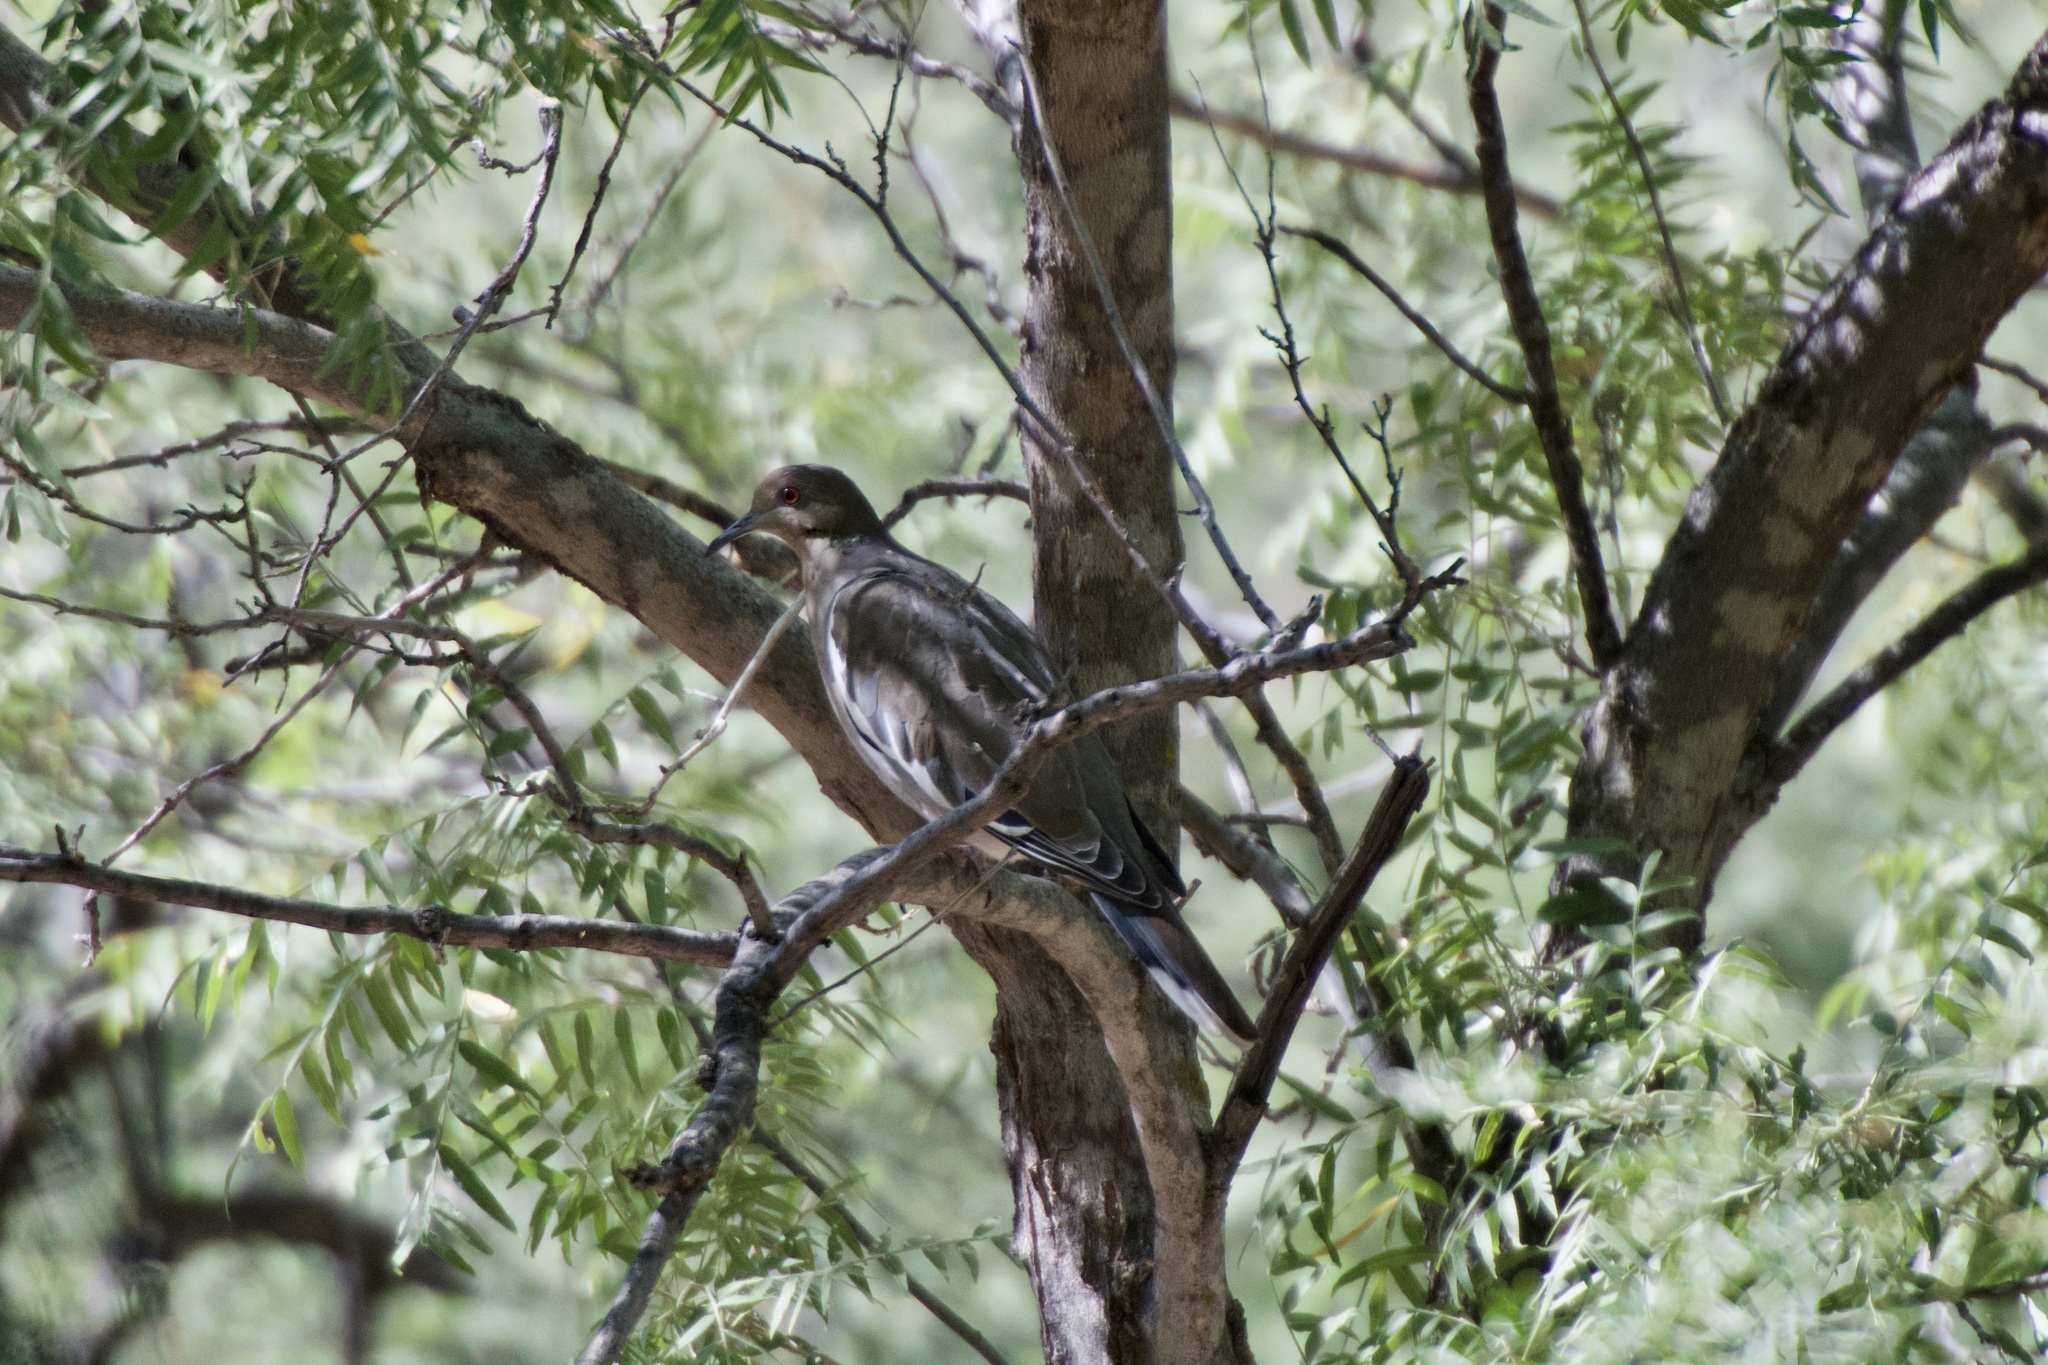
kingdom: Animalia
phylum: Chordata
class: Aves
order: Columbiformes
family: Columbidae
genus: Zenaida
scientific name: Zenaida asiatica
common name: White-winged dove
